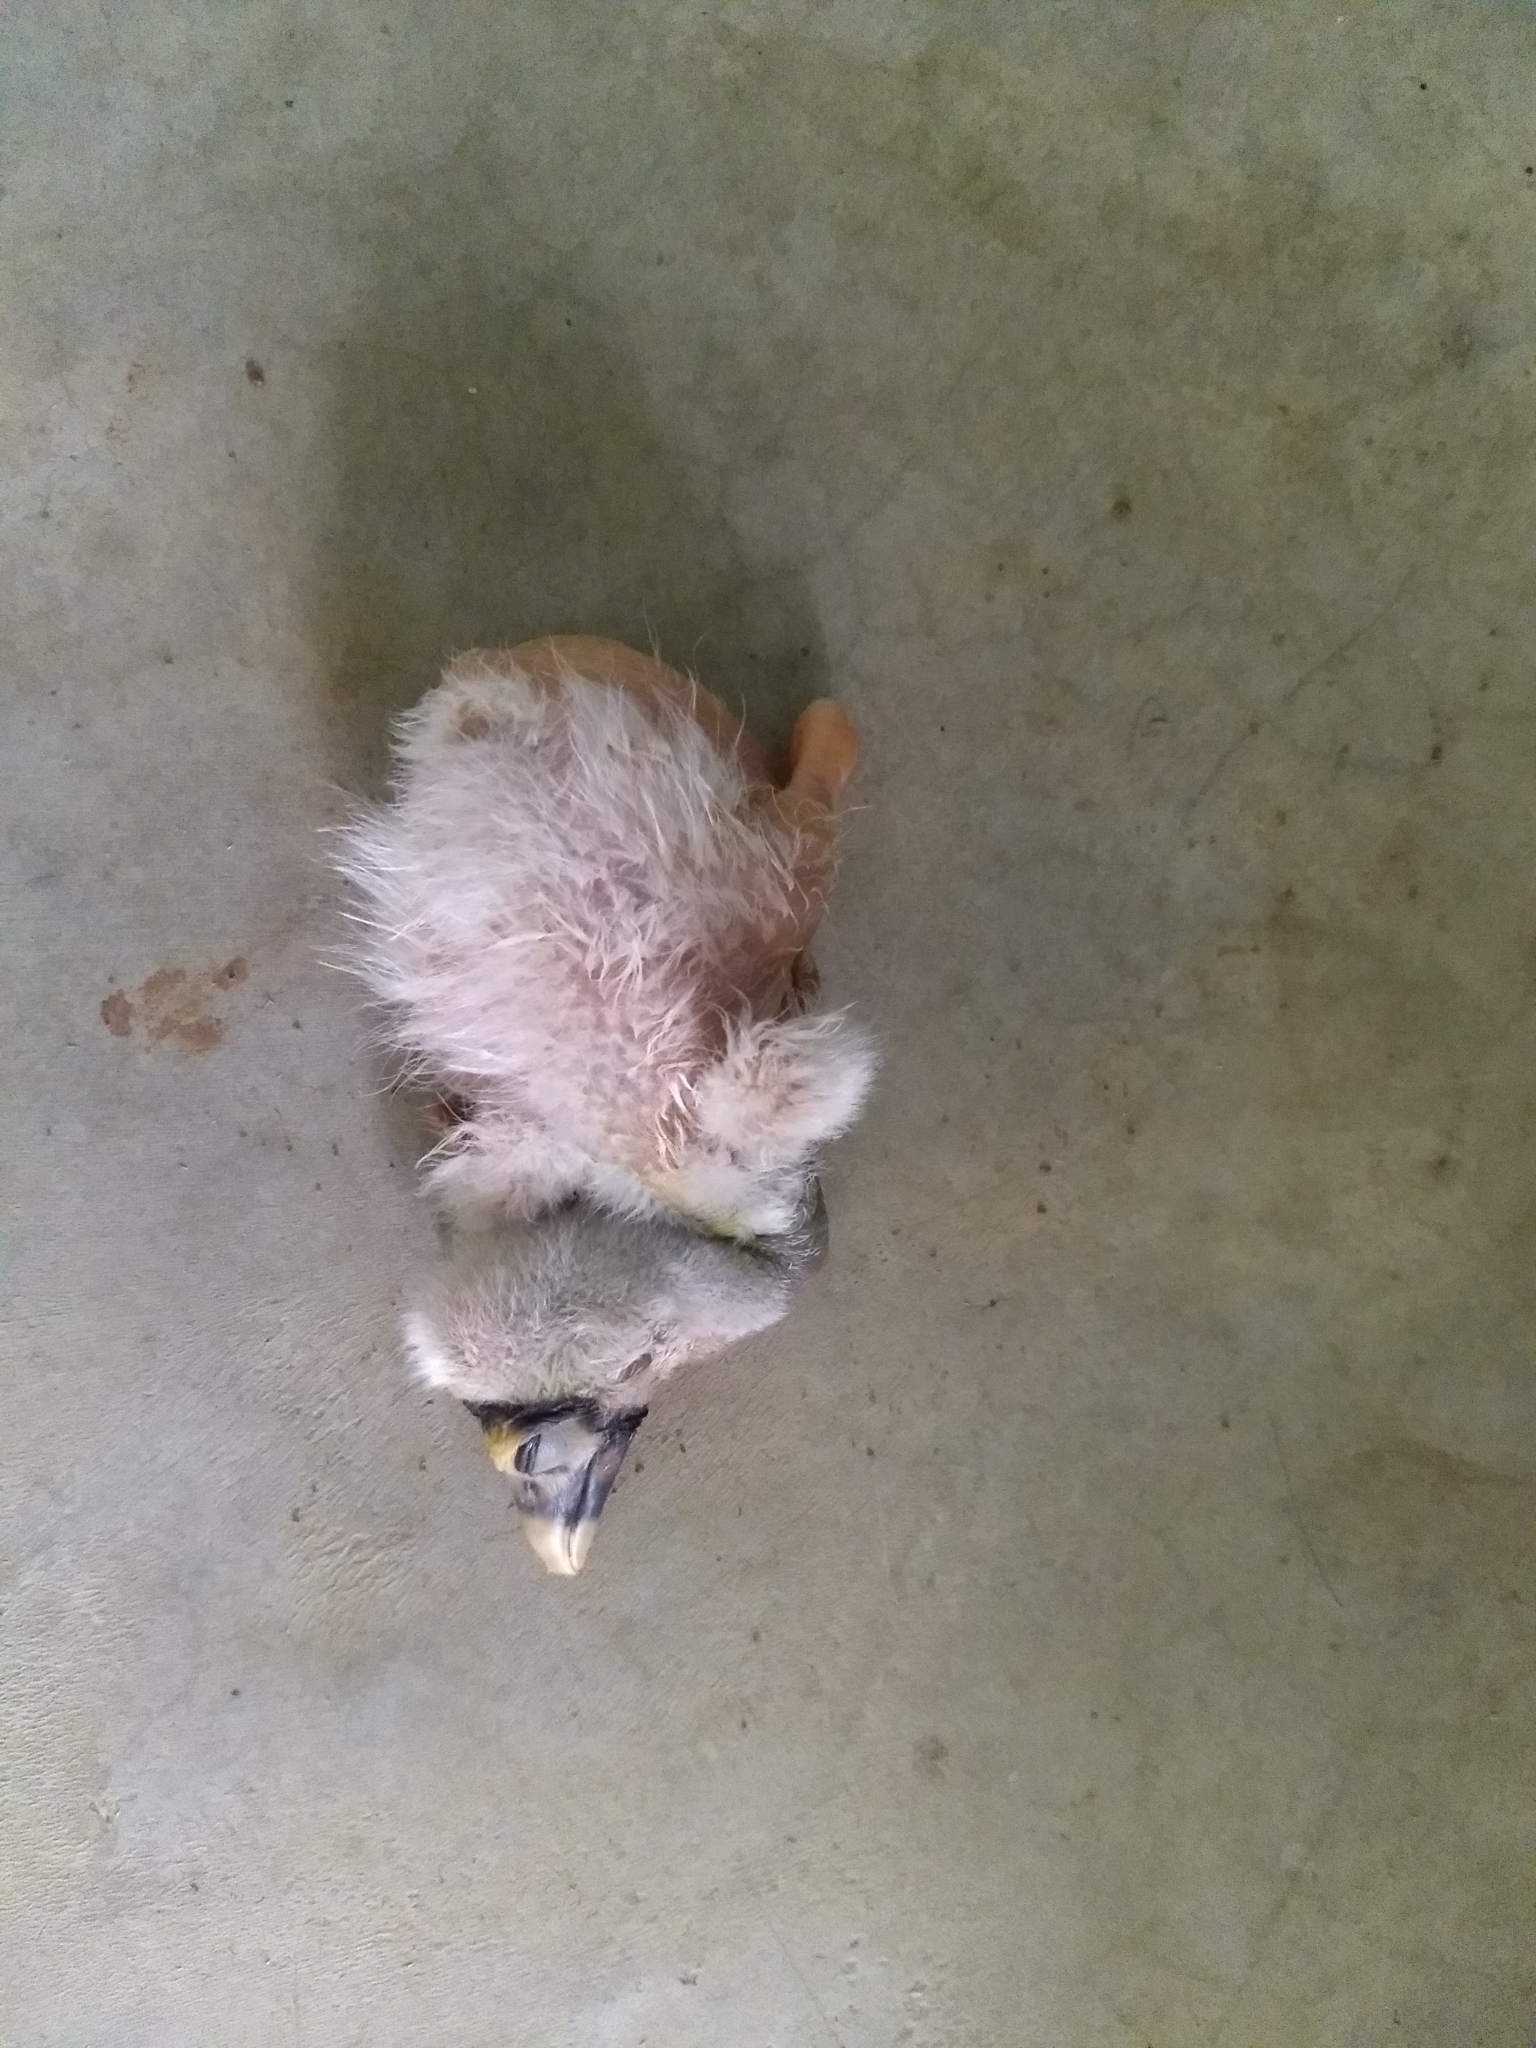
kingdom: Animalia
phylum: Chordata
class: Aves
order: Ciconiiformes
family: Ciconiidae
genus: Mycteria
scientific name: Mycteria leucocephala
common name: Painted stork
